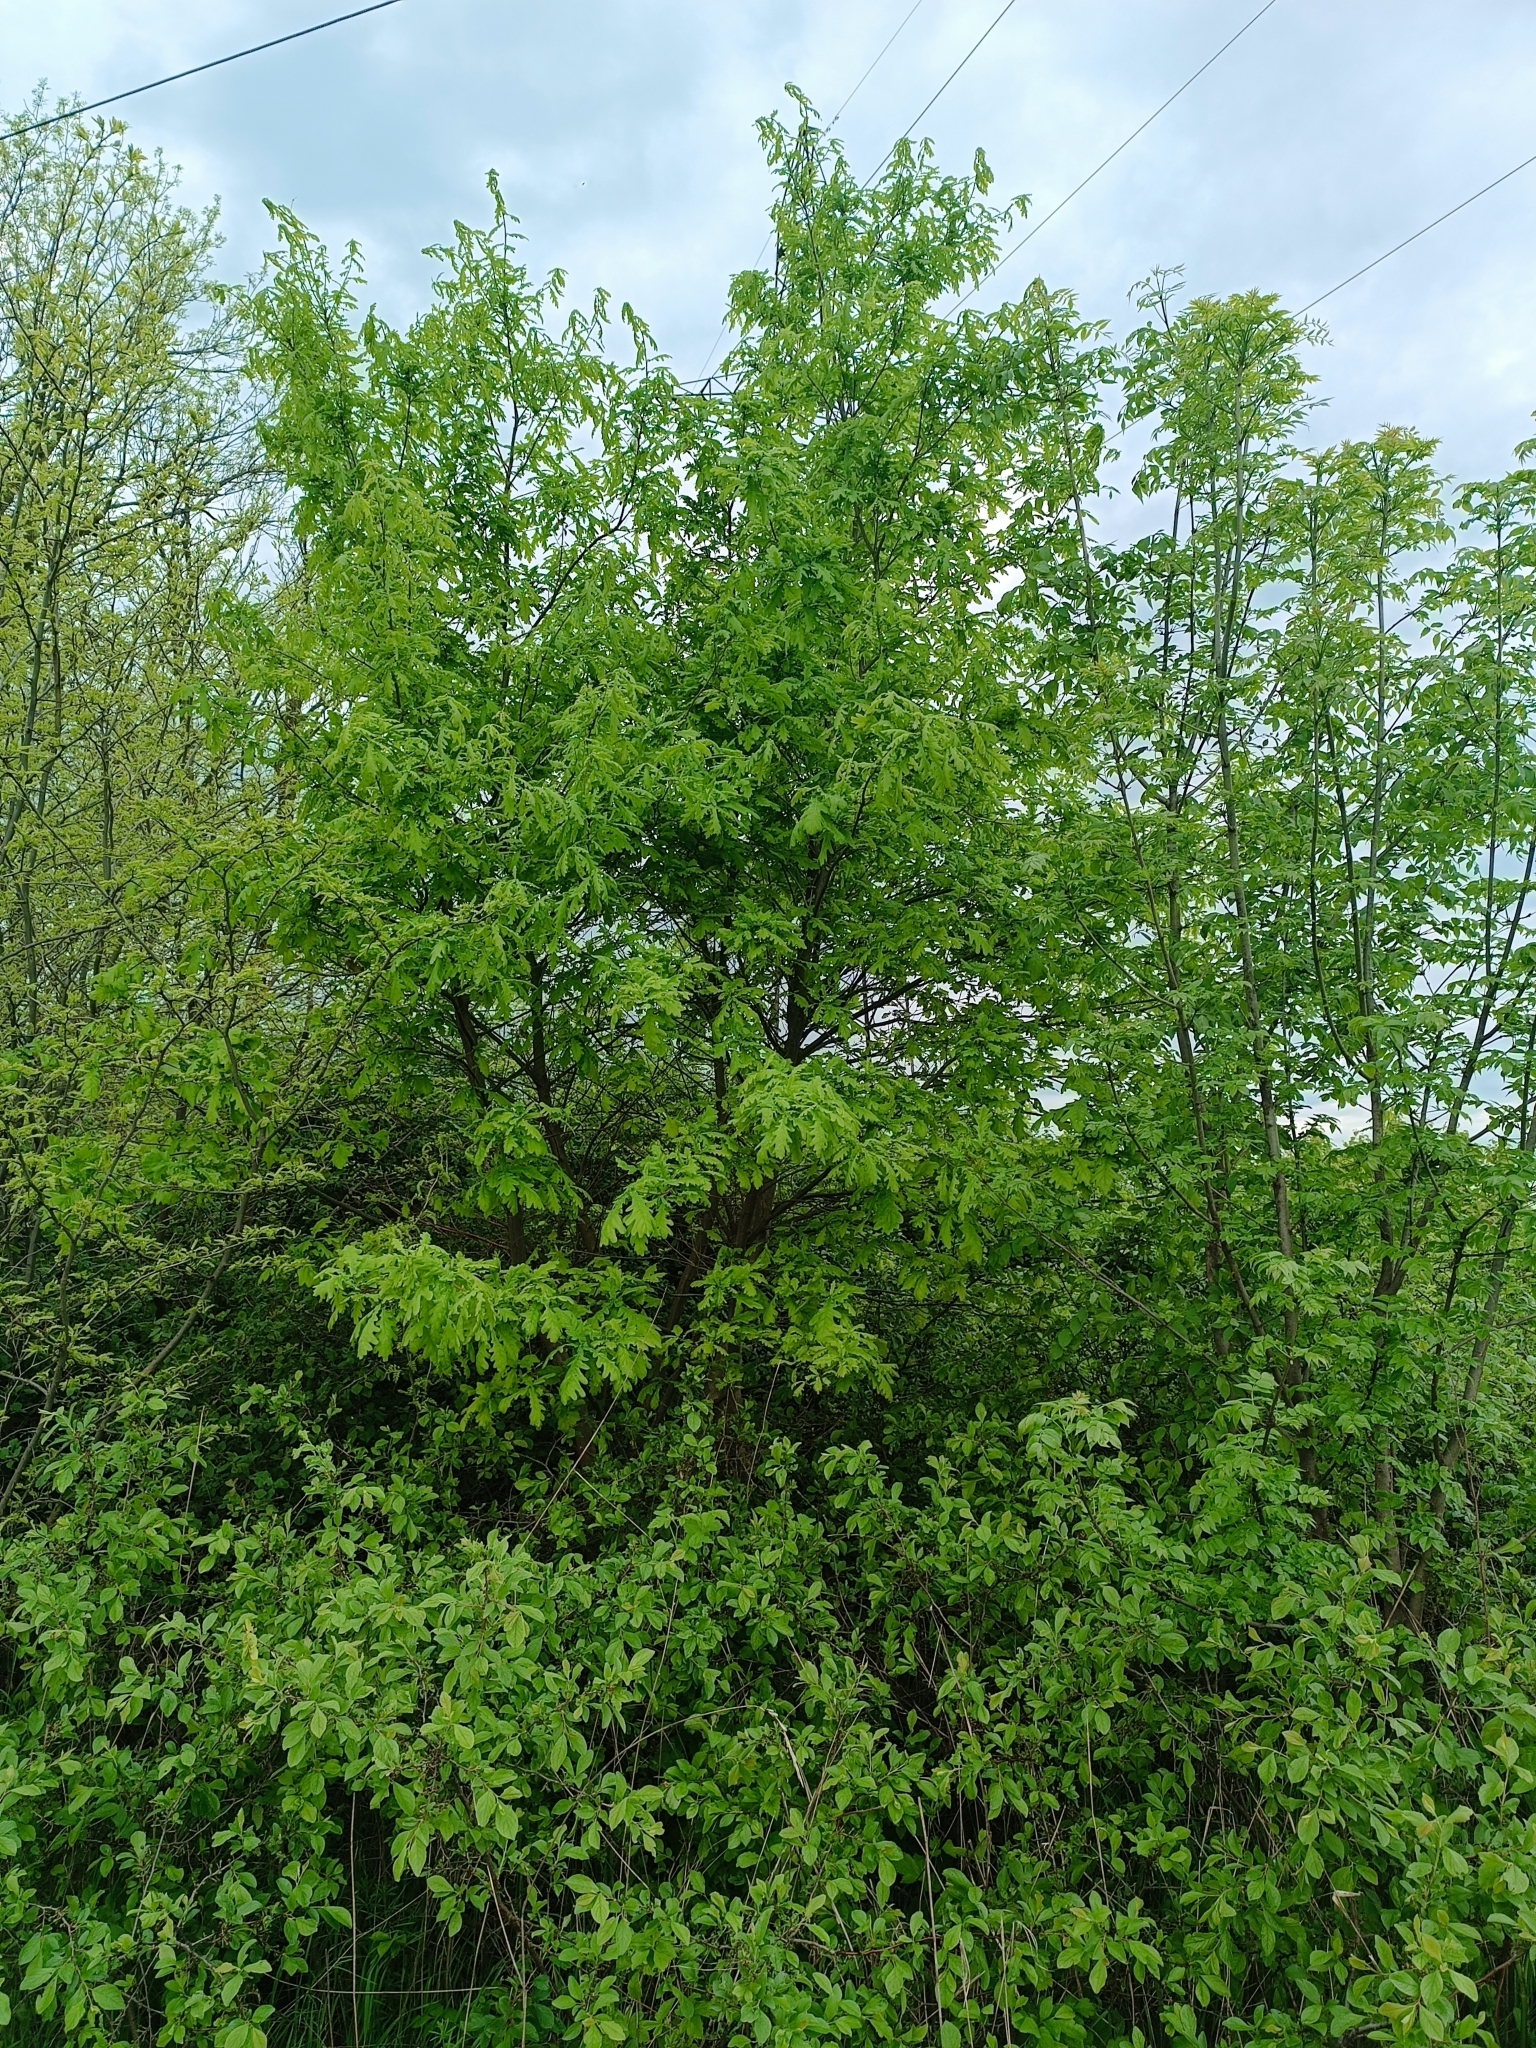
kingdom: Plantae
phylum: Tracheophyta
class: Magnoliopsida
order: Fagales
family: Fagaceae
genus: Quercus
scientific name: Quercus robur
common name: Pedunculate oak
